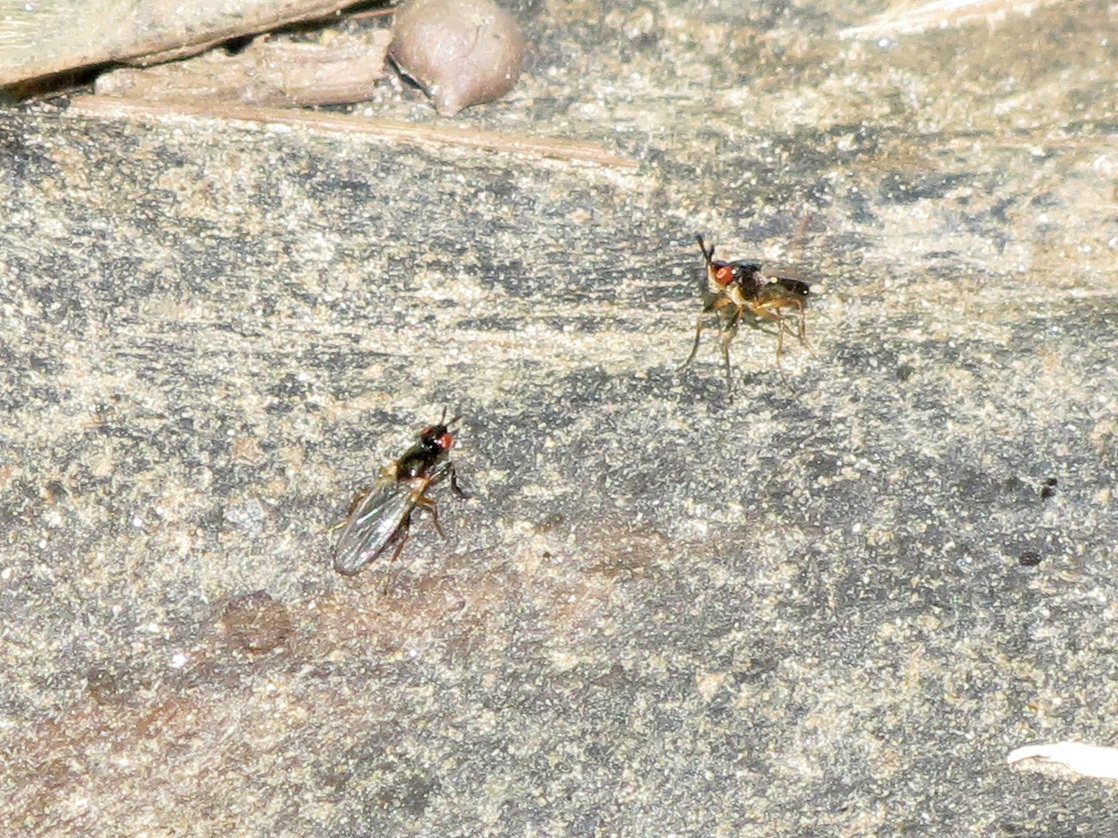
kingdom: Animalia
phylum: Arthropoda
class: Insecta
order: Diptera
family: Piophilidae
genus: Prochyliza
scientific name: Prochyliza xanthostoma
